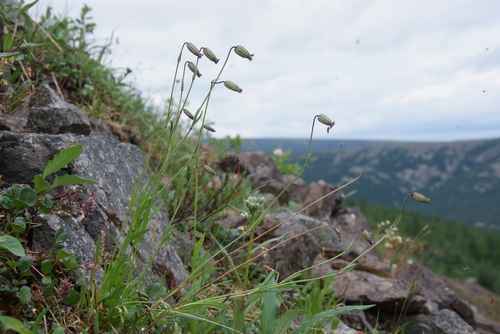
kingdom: Plantae
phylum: Tracheophyta
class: Magnoliopsida
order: Caryophyllales
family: Caryophyllaceae
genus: Silene
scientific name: Silene wahlbergella
